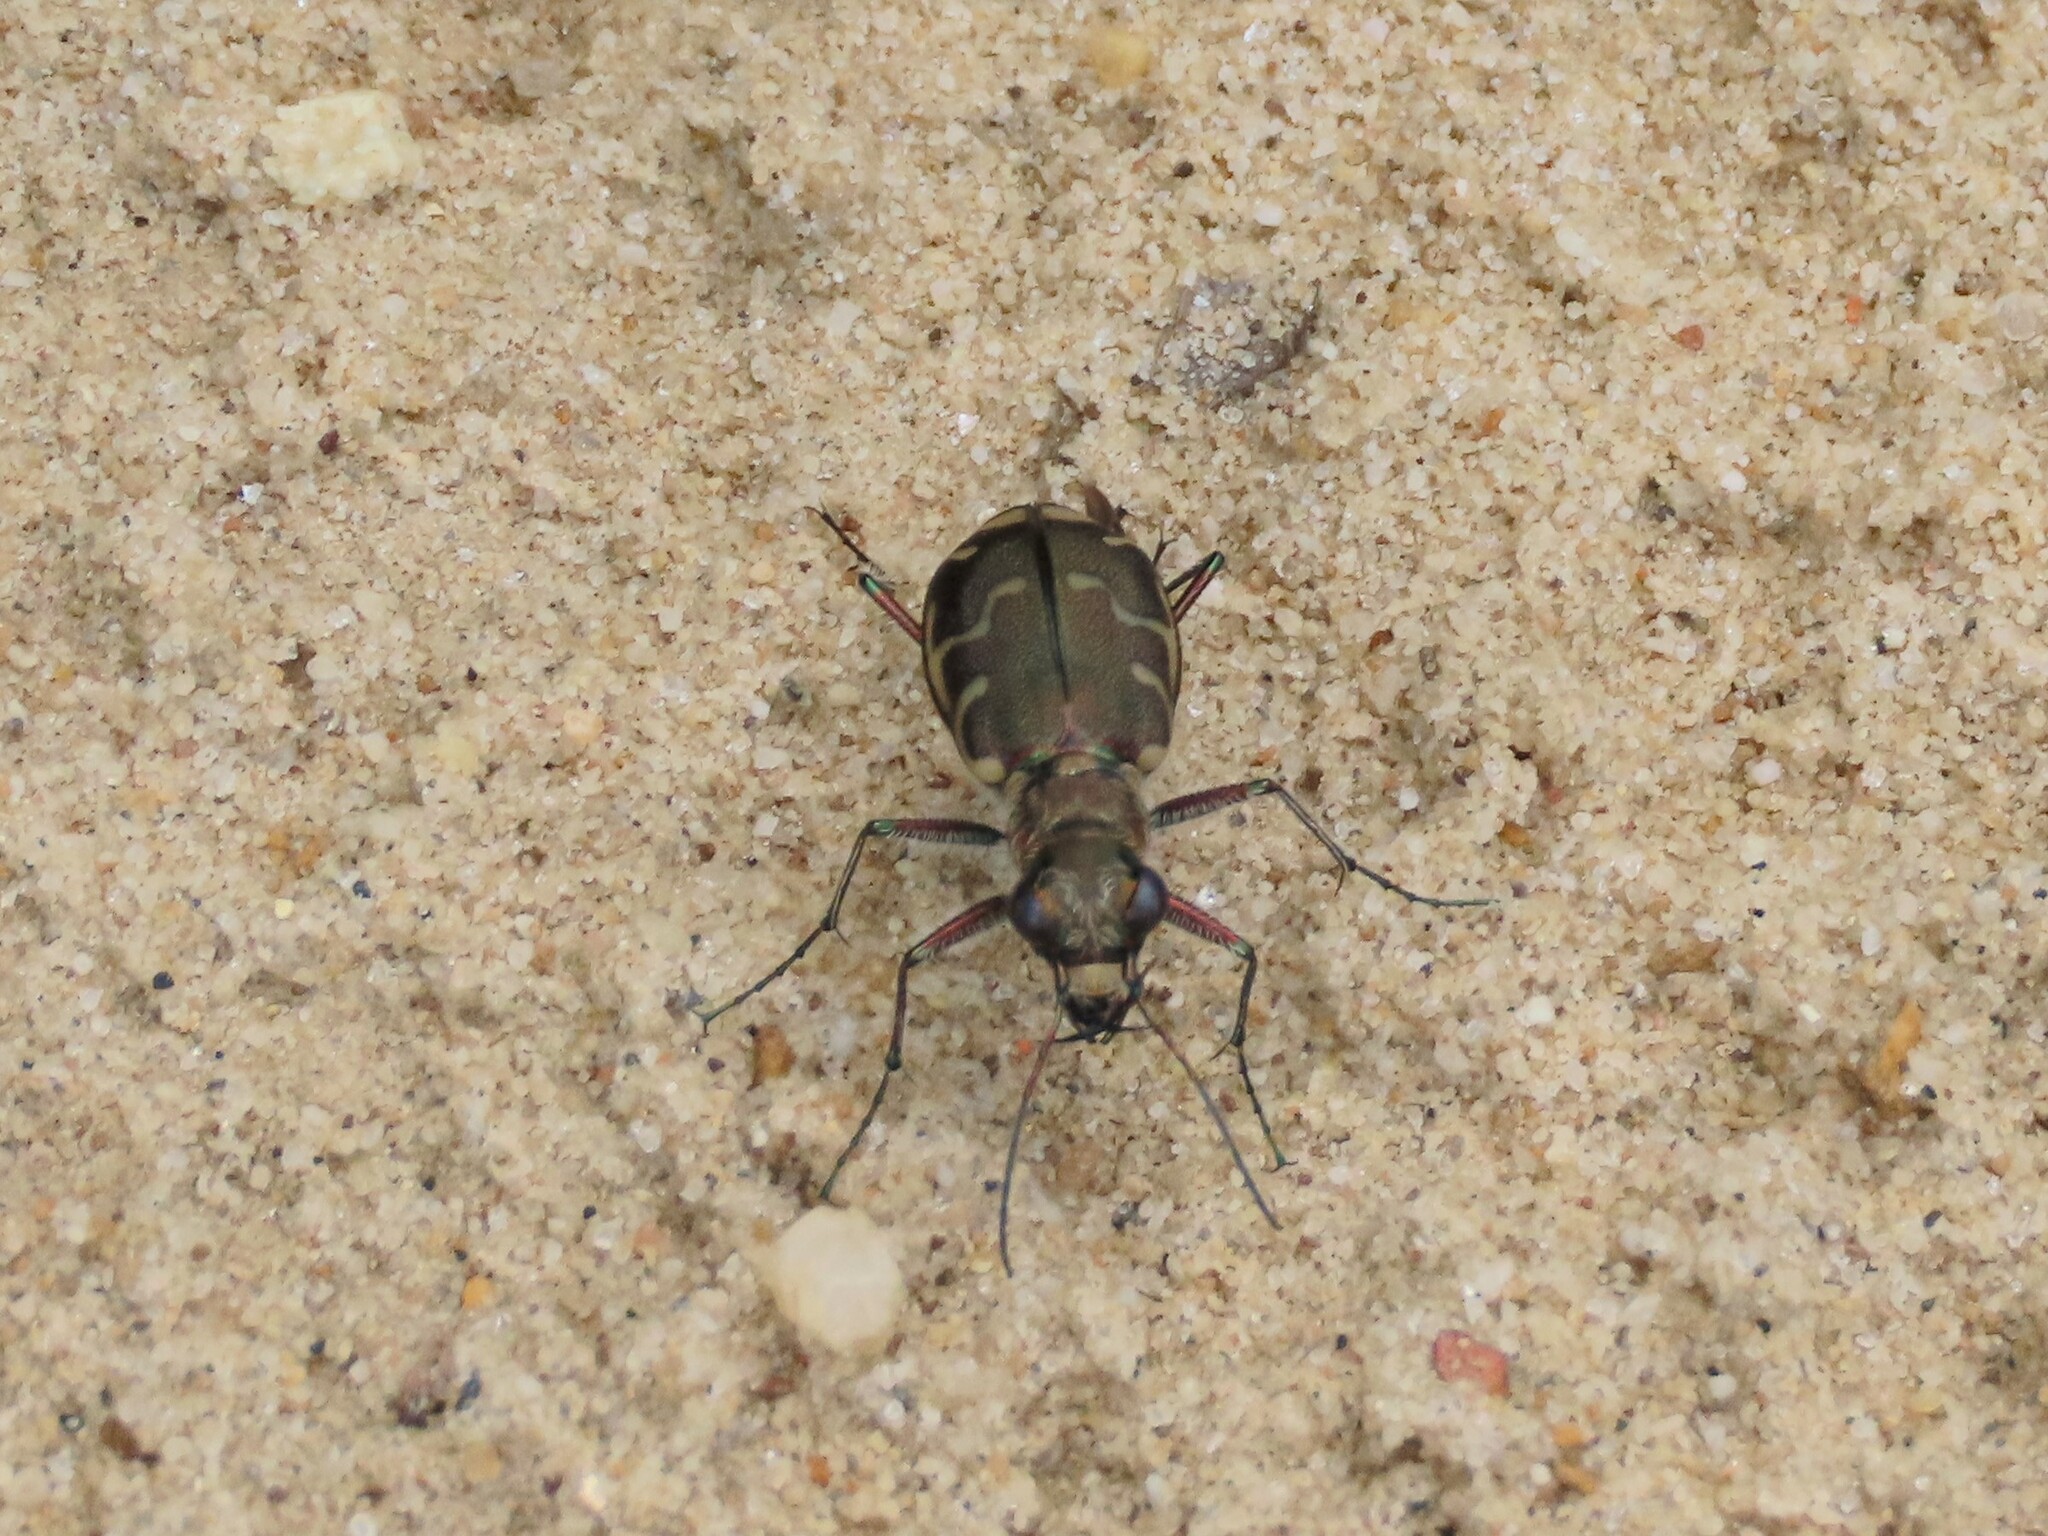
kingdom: Animalia
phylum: Arthropoda
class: Insecta
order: Coleoptera
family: Carabidae
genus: Cicindela
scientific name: Cicindela repanda
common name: Bronzed tiger beetle
